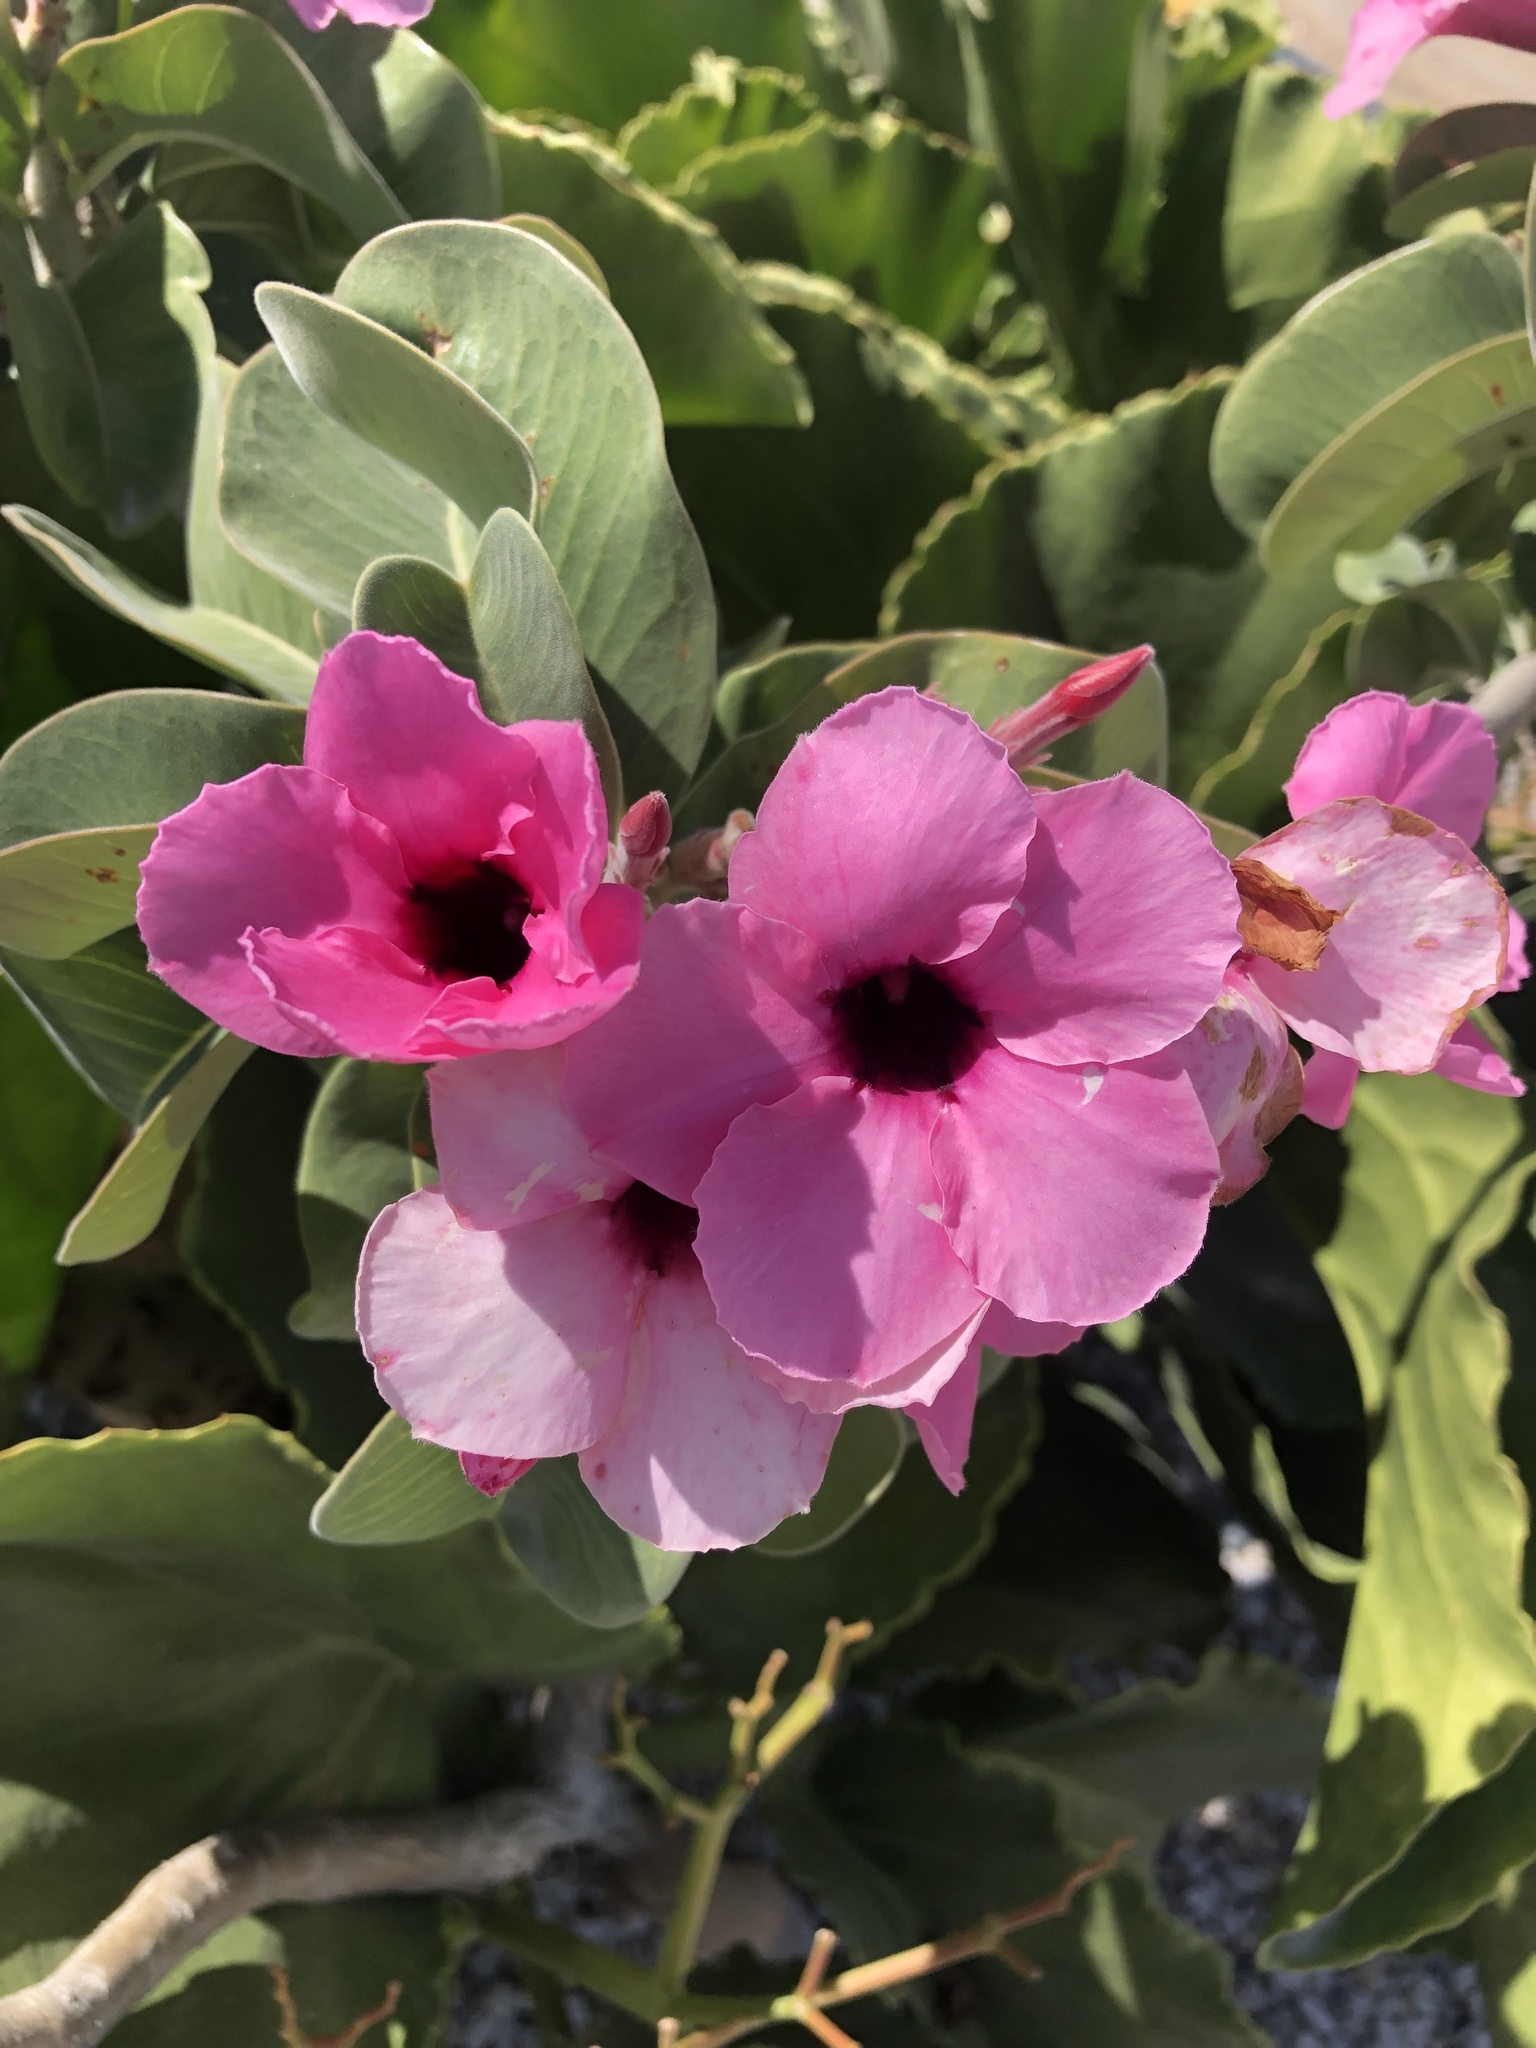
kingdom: Plantae
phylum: Tracheophyta
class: Magnoliopsida
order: Gentianales
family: Apocynaceae
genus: Adenium
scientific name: Adenium obesum
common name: Desert-rose
